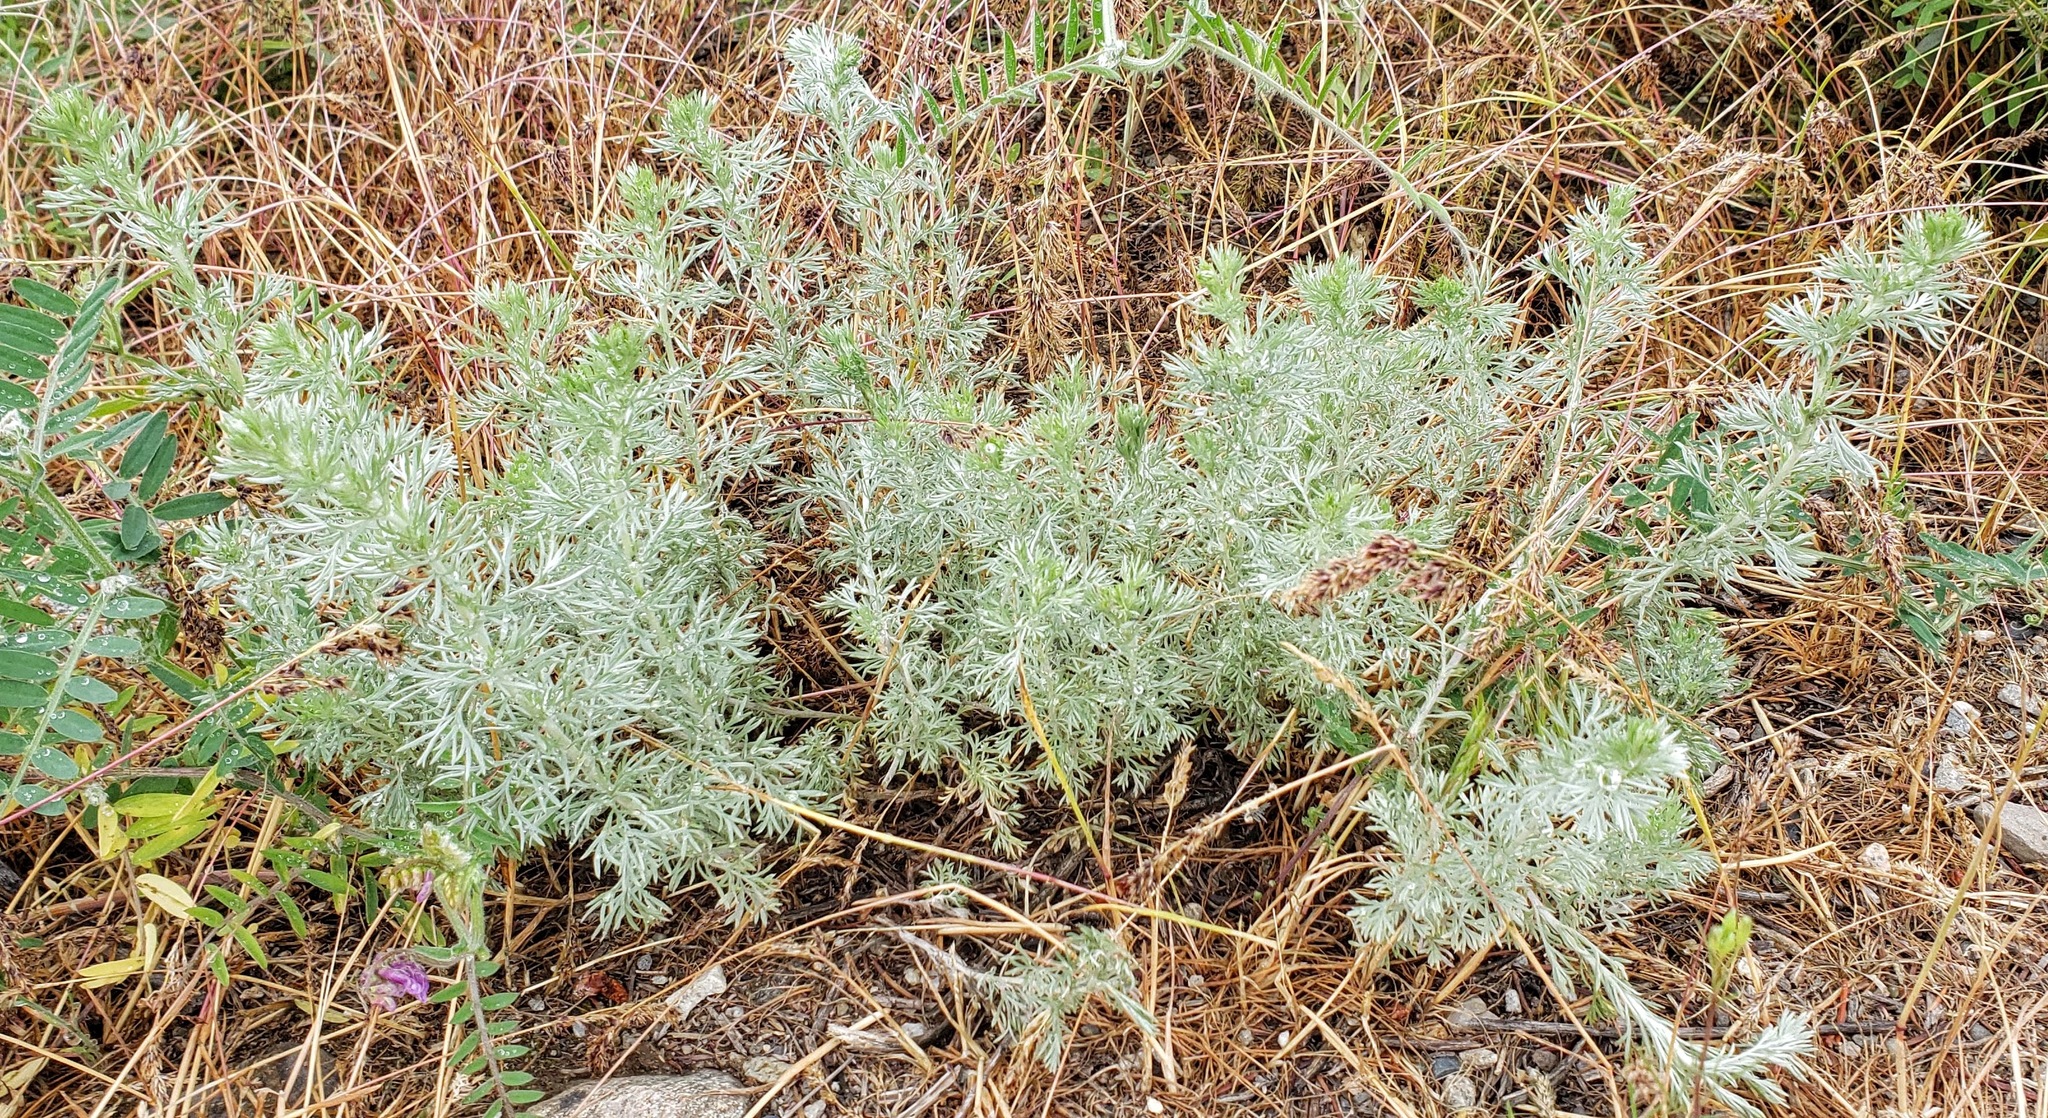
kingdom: Plantae
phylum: Tracheophyta
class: Magnoliopsida
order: Asterales
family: Asteraceae
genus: Artemisia
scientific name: Artemisia frigida
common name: Prairie sagewort
